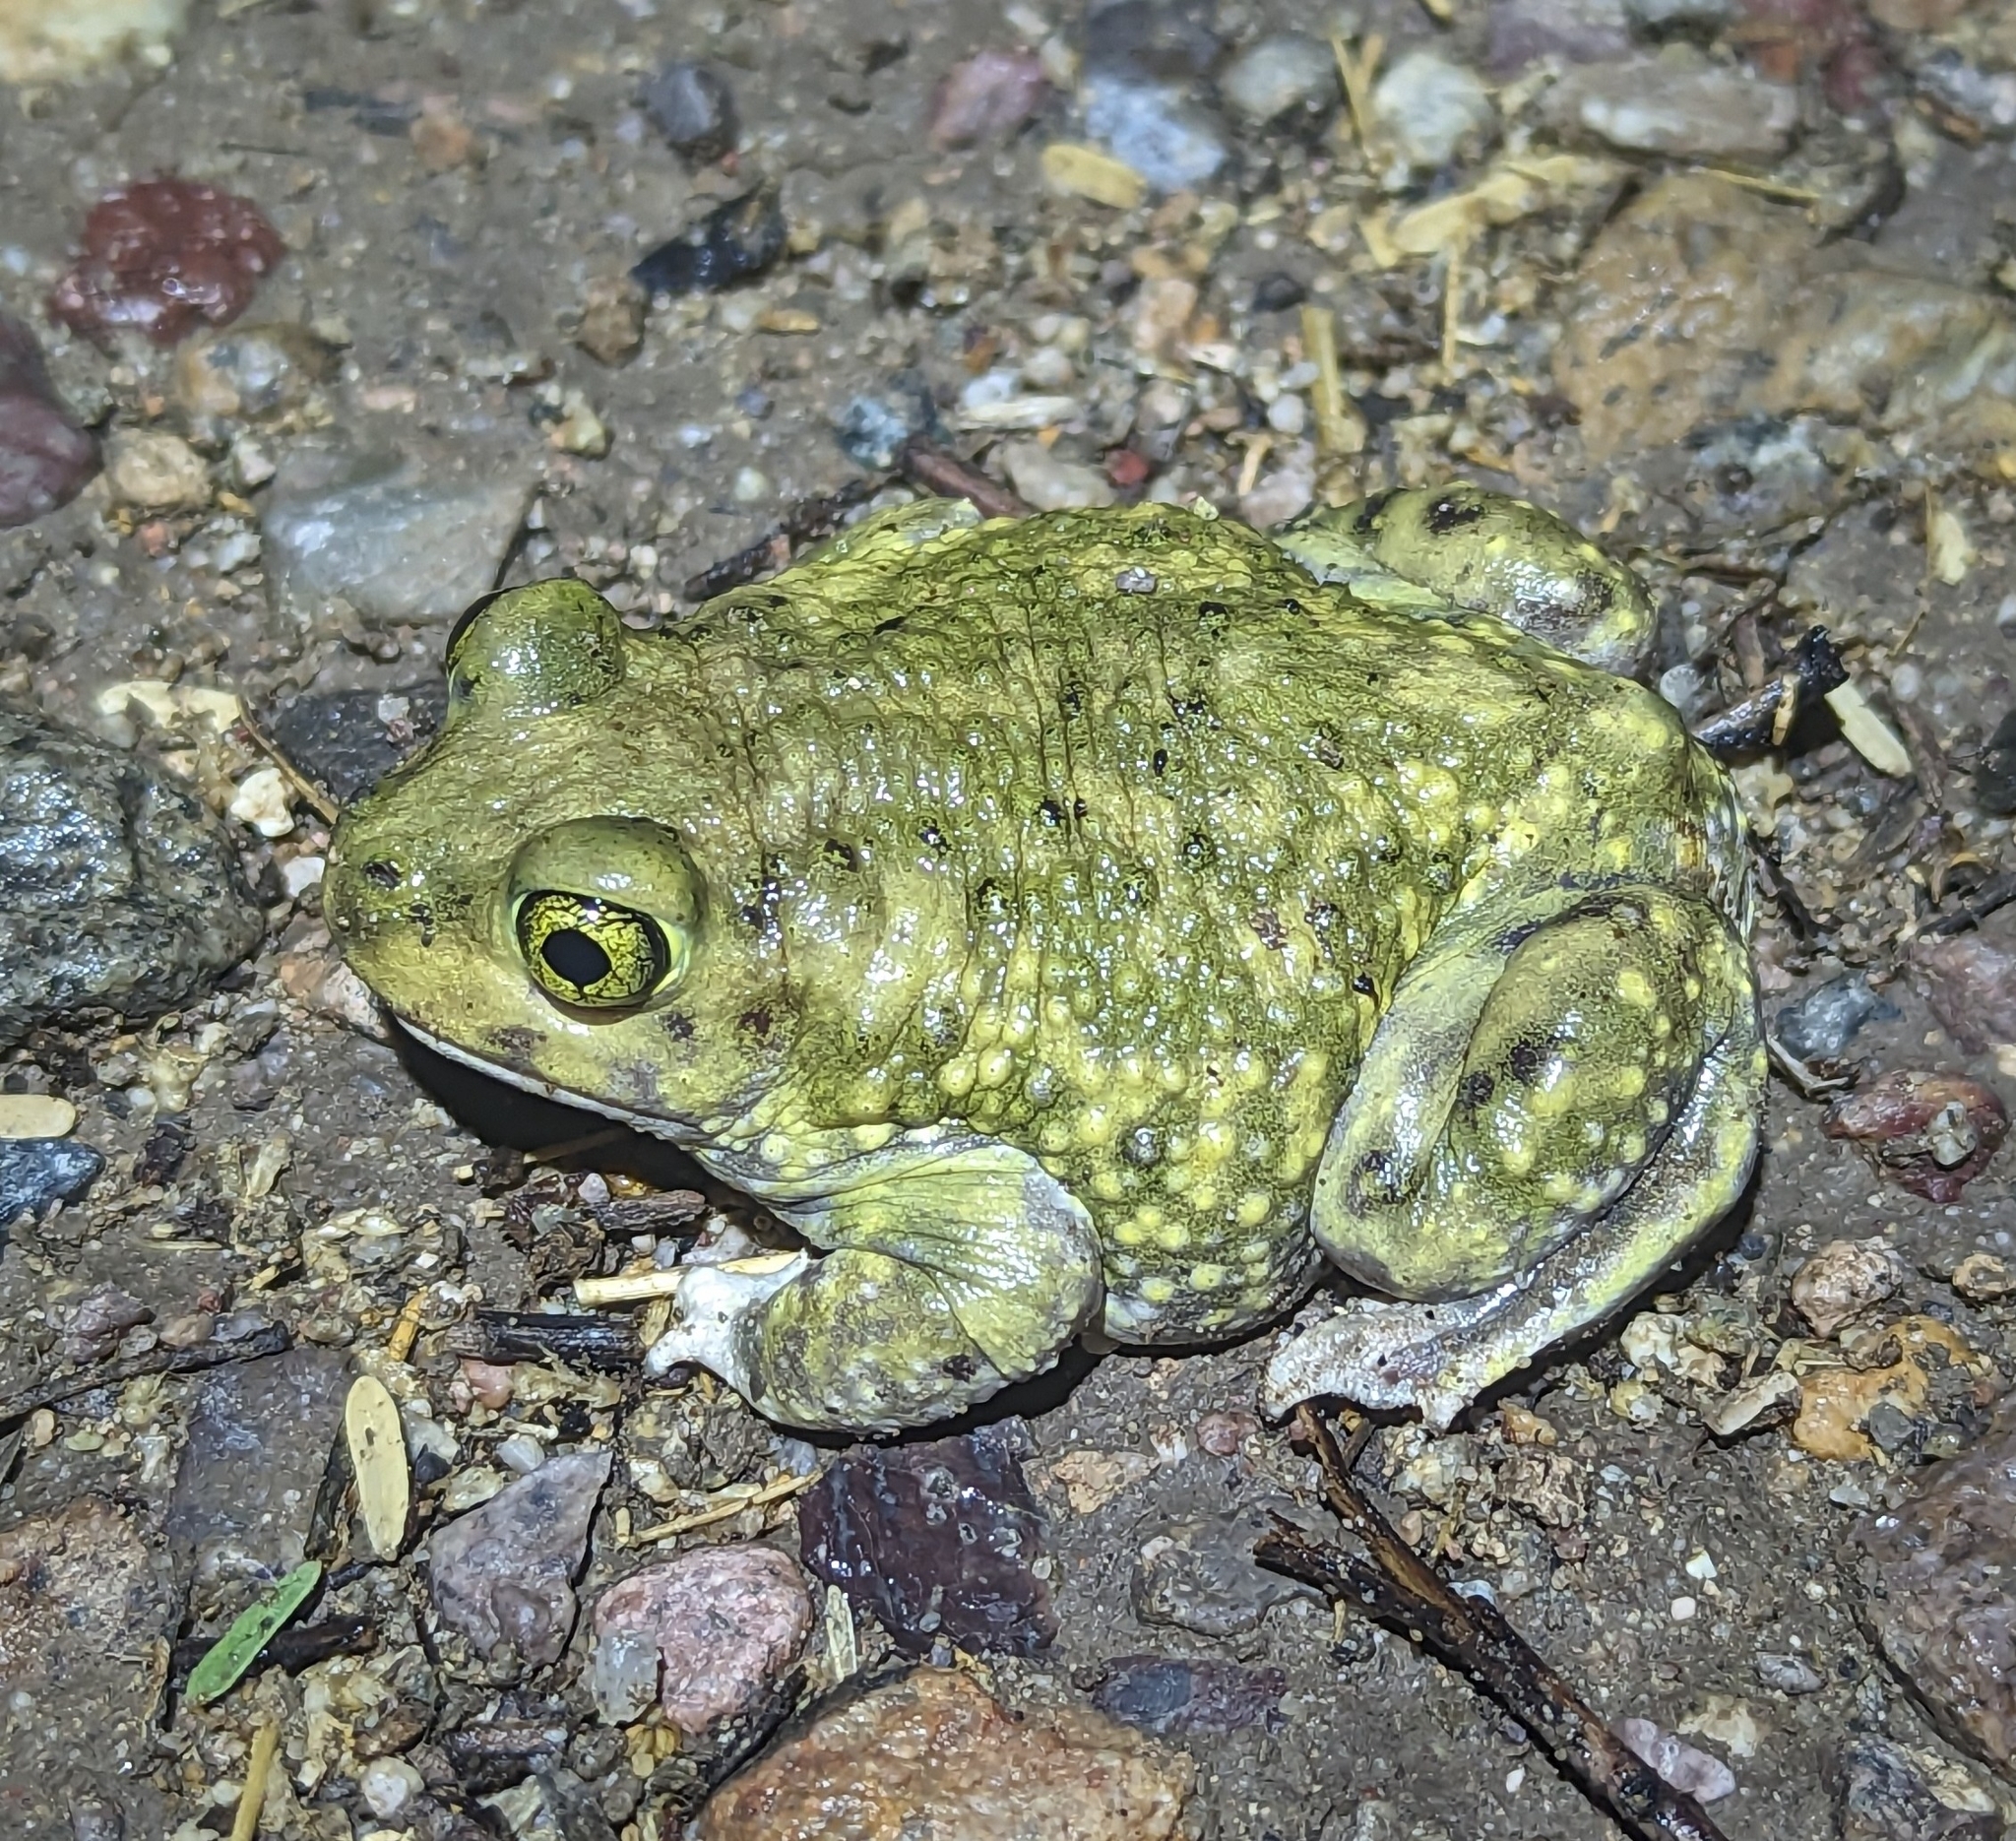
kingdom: Animalia
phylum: Chordata
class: Amphibia
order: Anura
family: Scaphiopodidae
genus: Scaphiopus
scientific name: Scaphiopus couchii
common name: Couch's spadefoot toad
